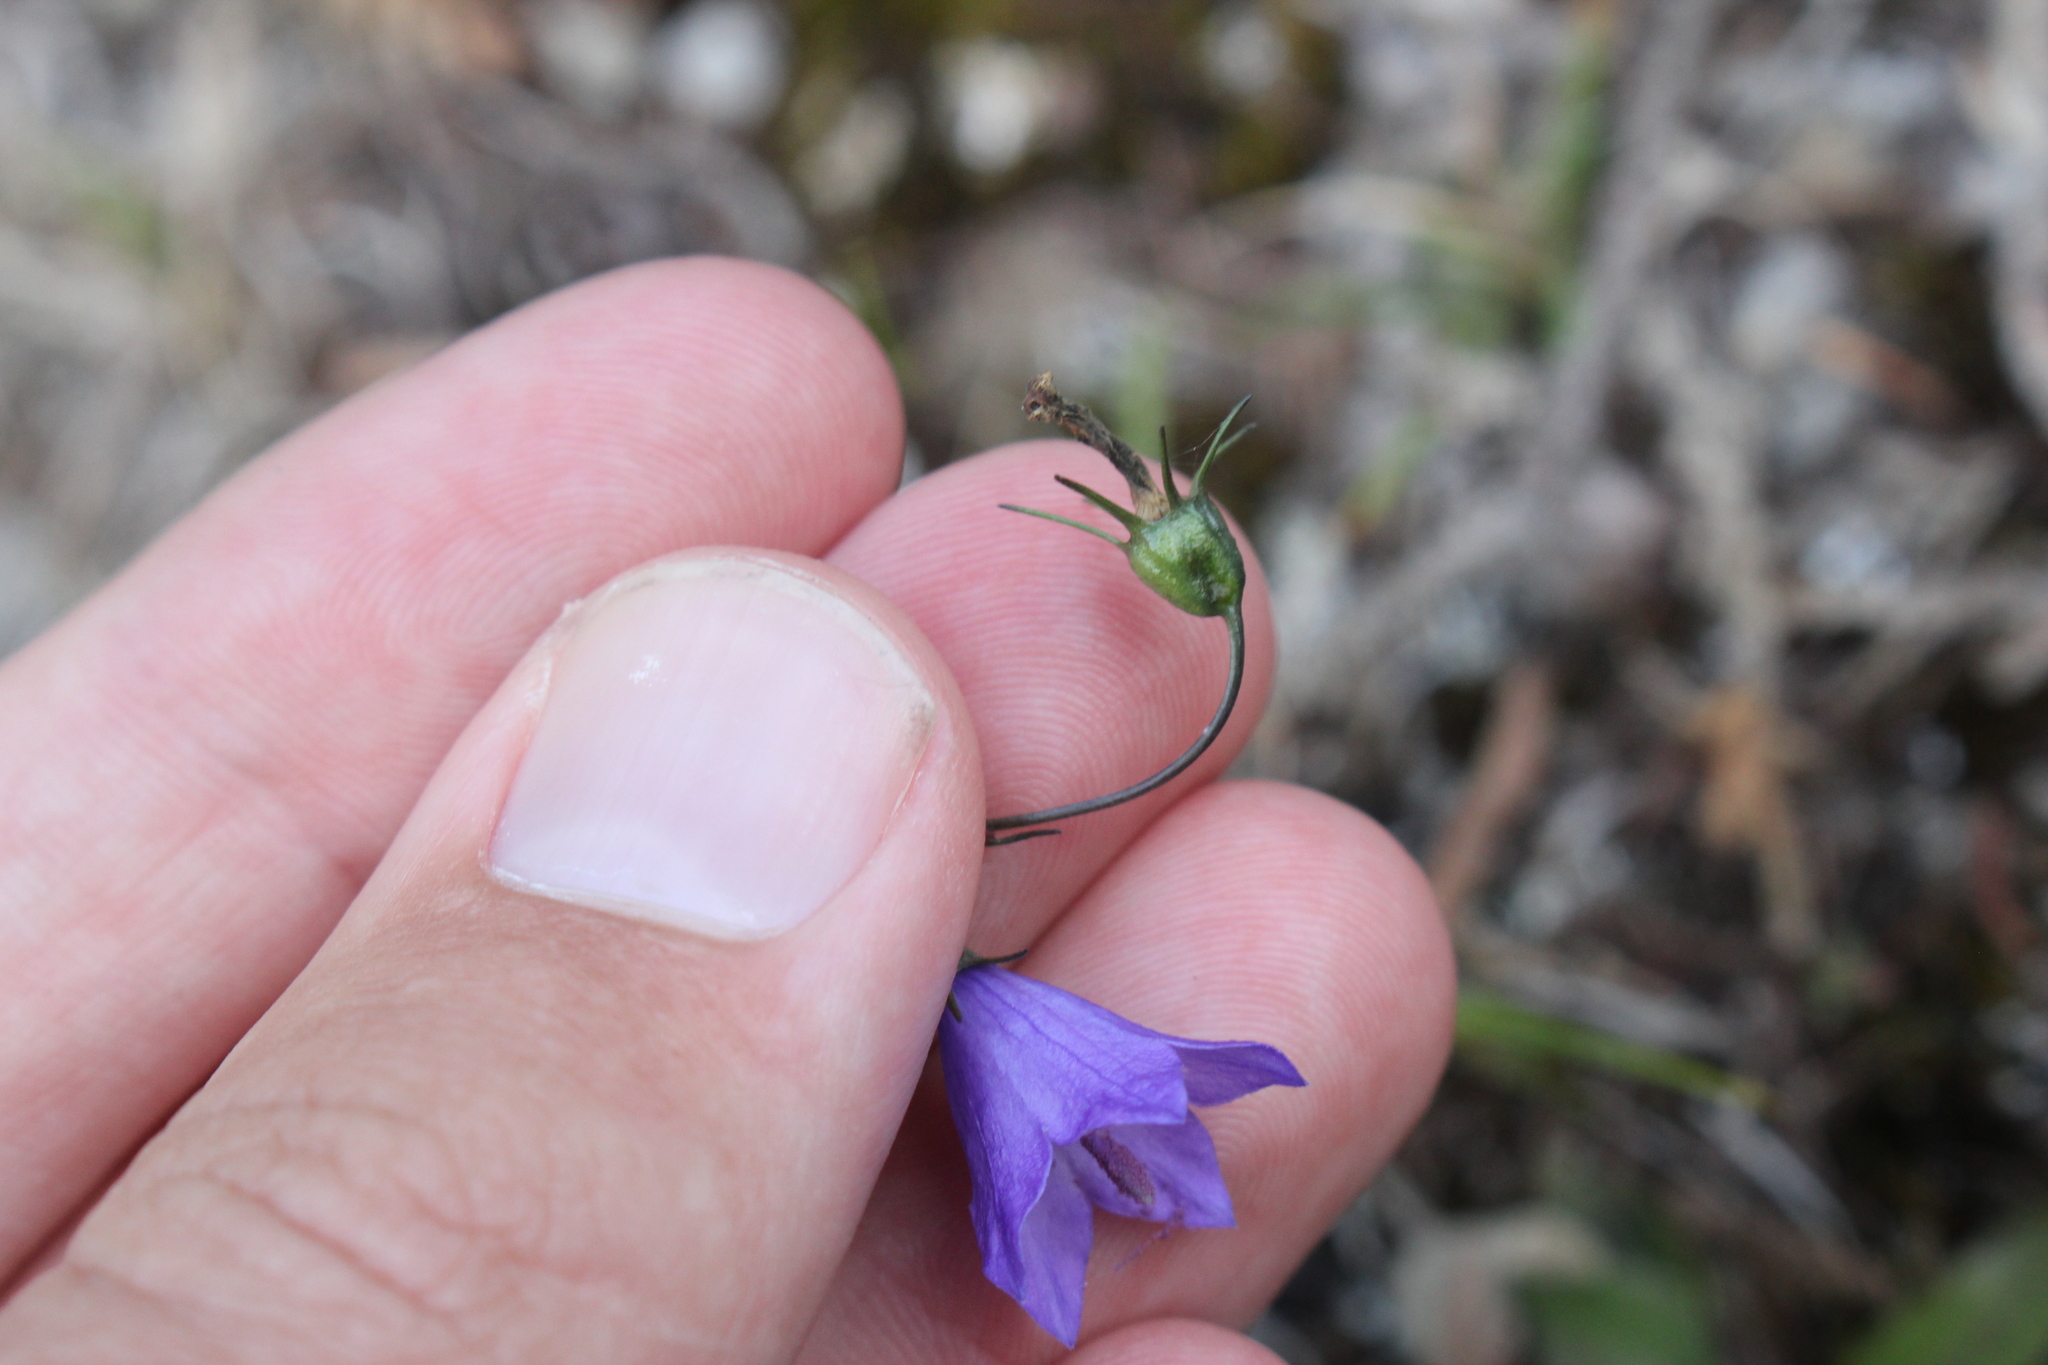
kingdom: Plantae
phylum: Tracheophyta
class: Magnoliopsida
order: Asterales
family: Campanulaceae
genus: Campanula
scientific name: Campanula giesekiana
